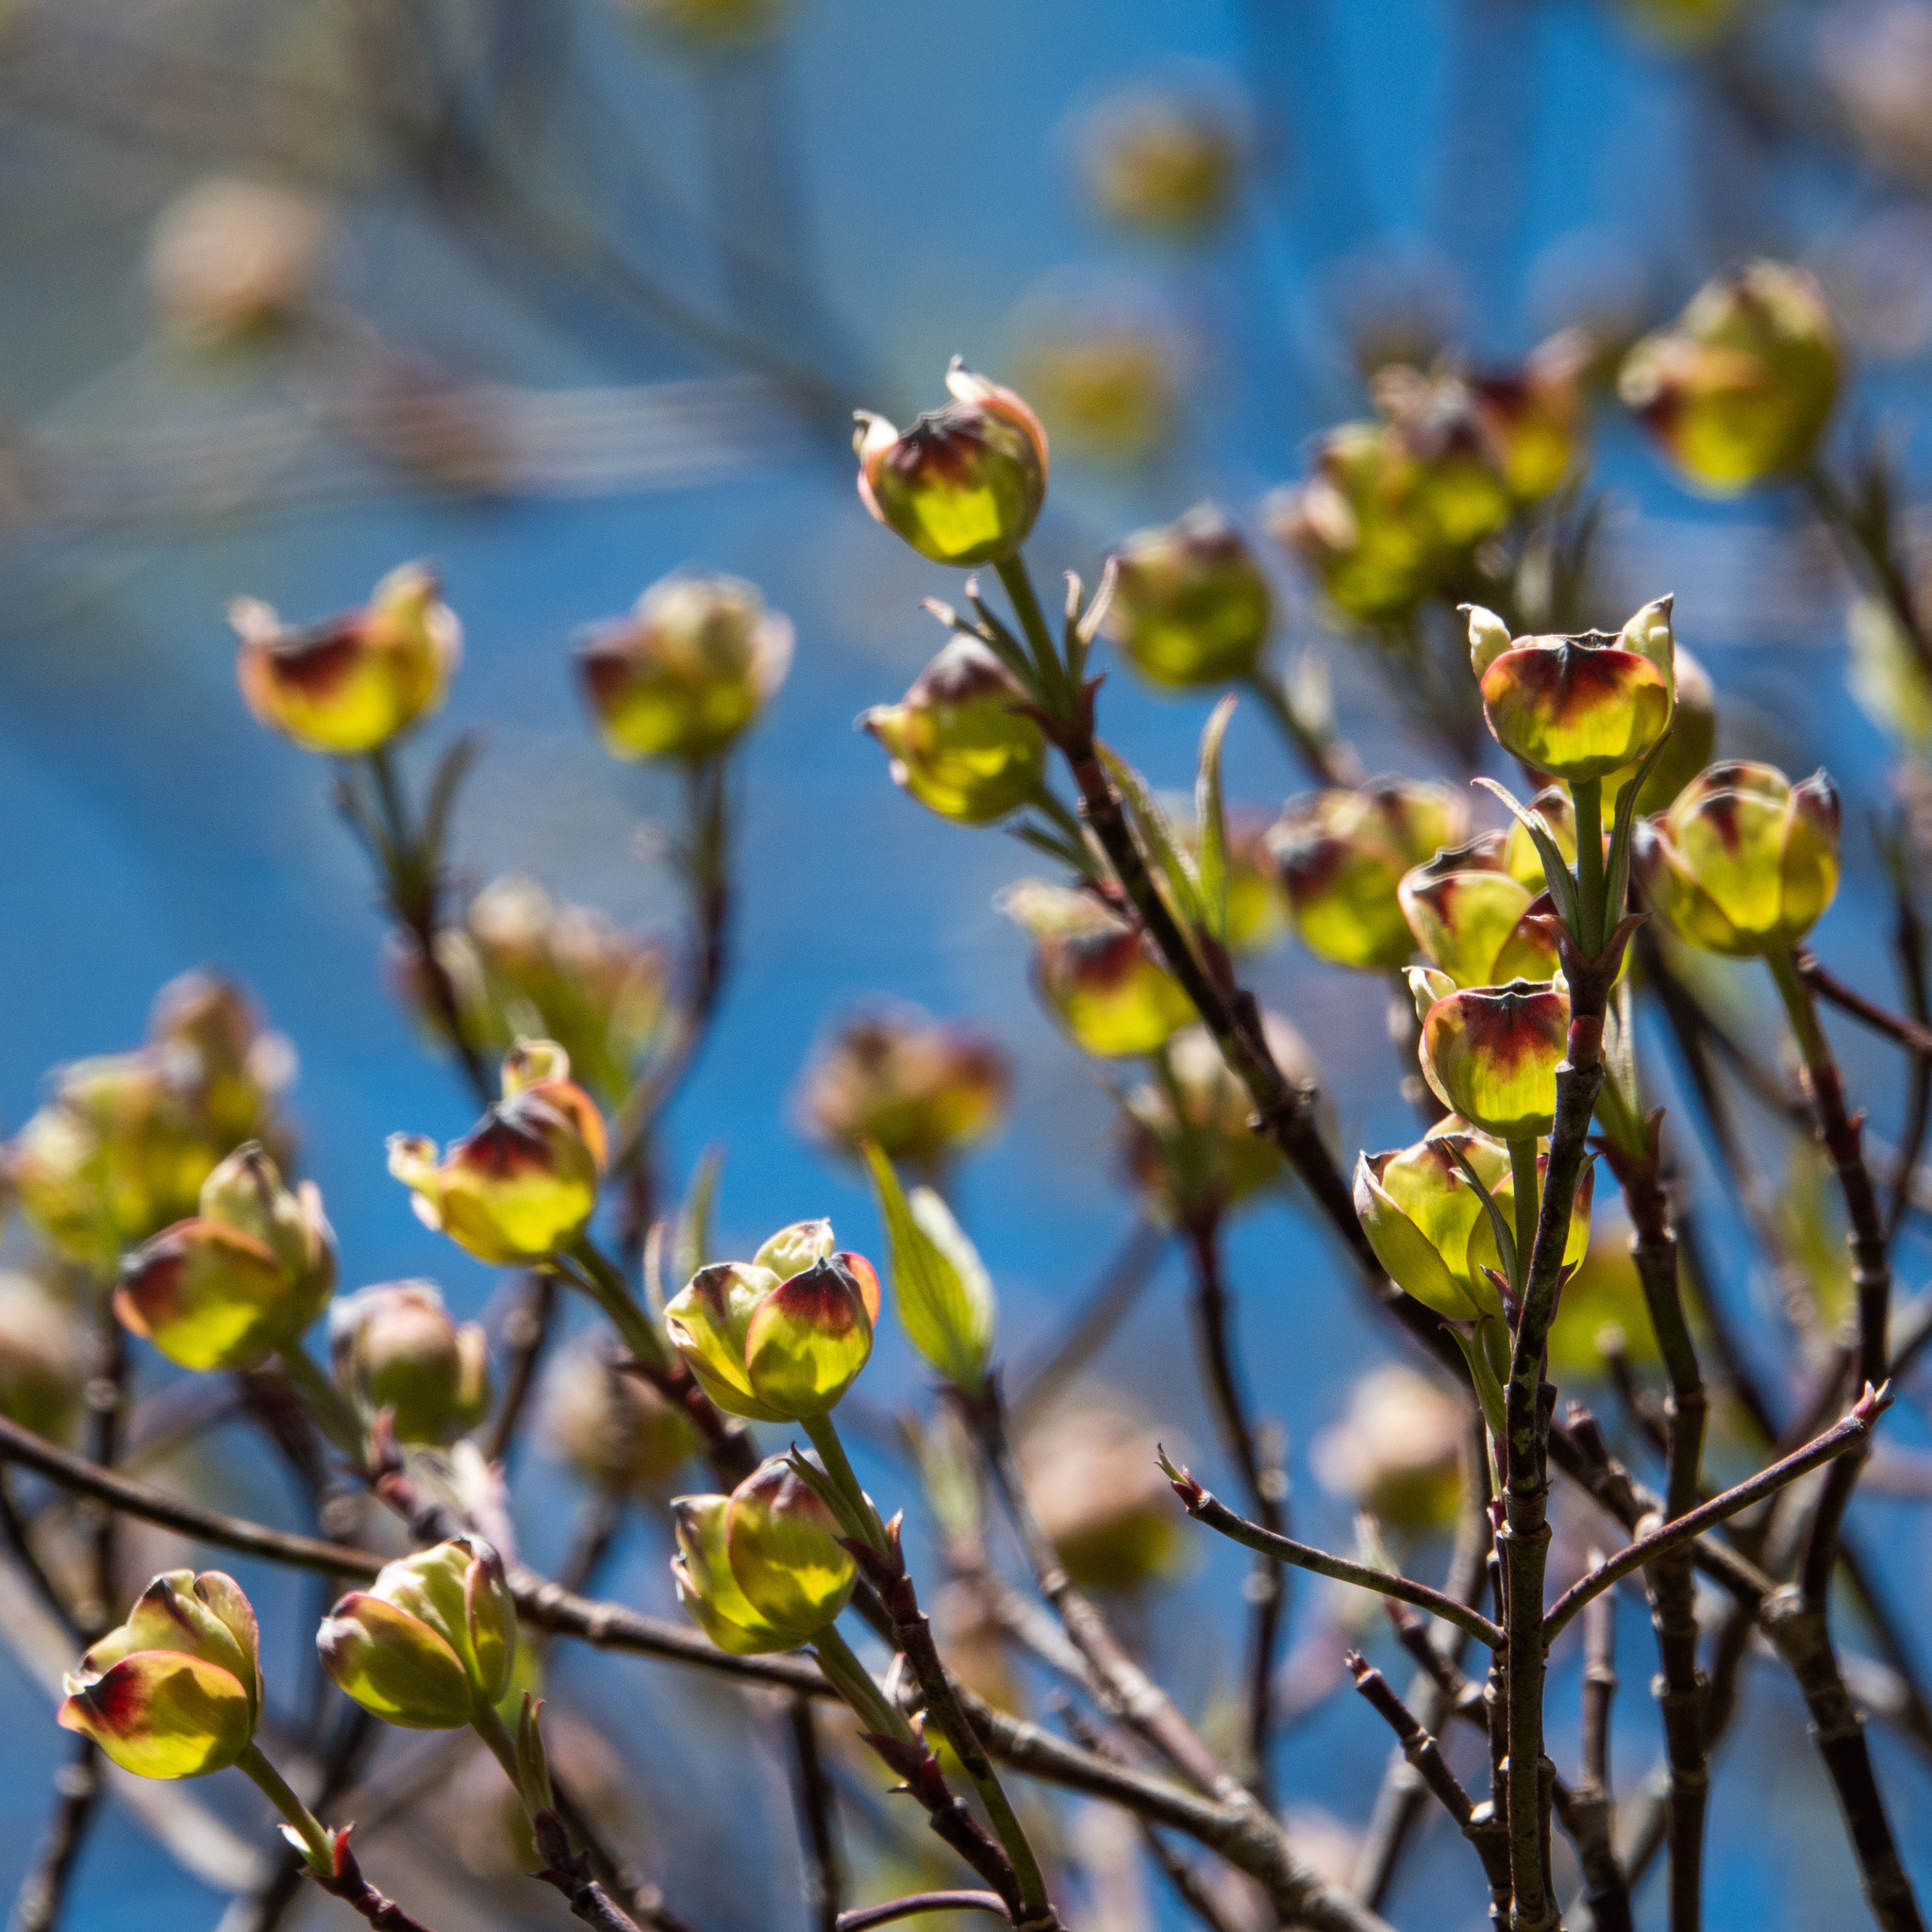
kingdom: Plantae
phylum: Tracheophyta
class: Magnoliopsida
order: Cornales
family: Cornaceae
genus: Cornus
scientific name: Cornus florida
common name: Flowering dogwood
